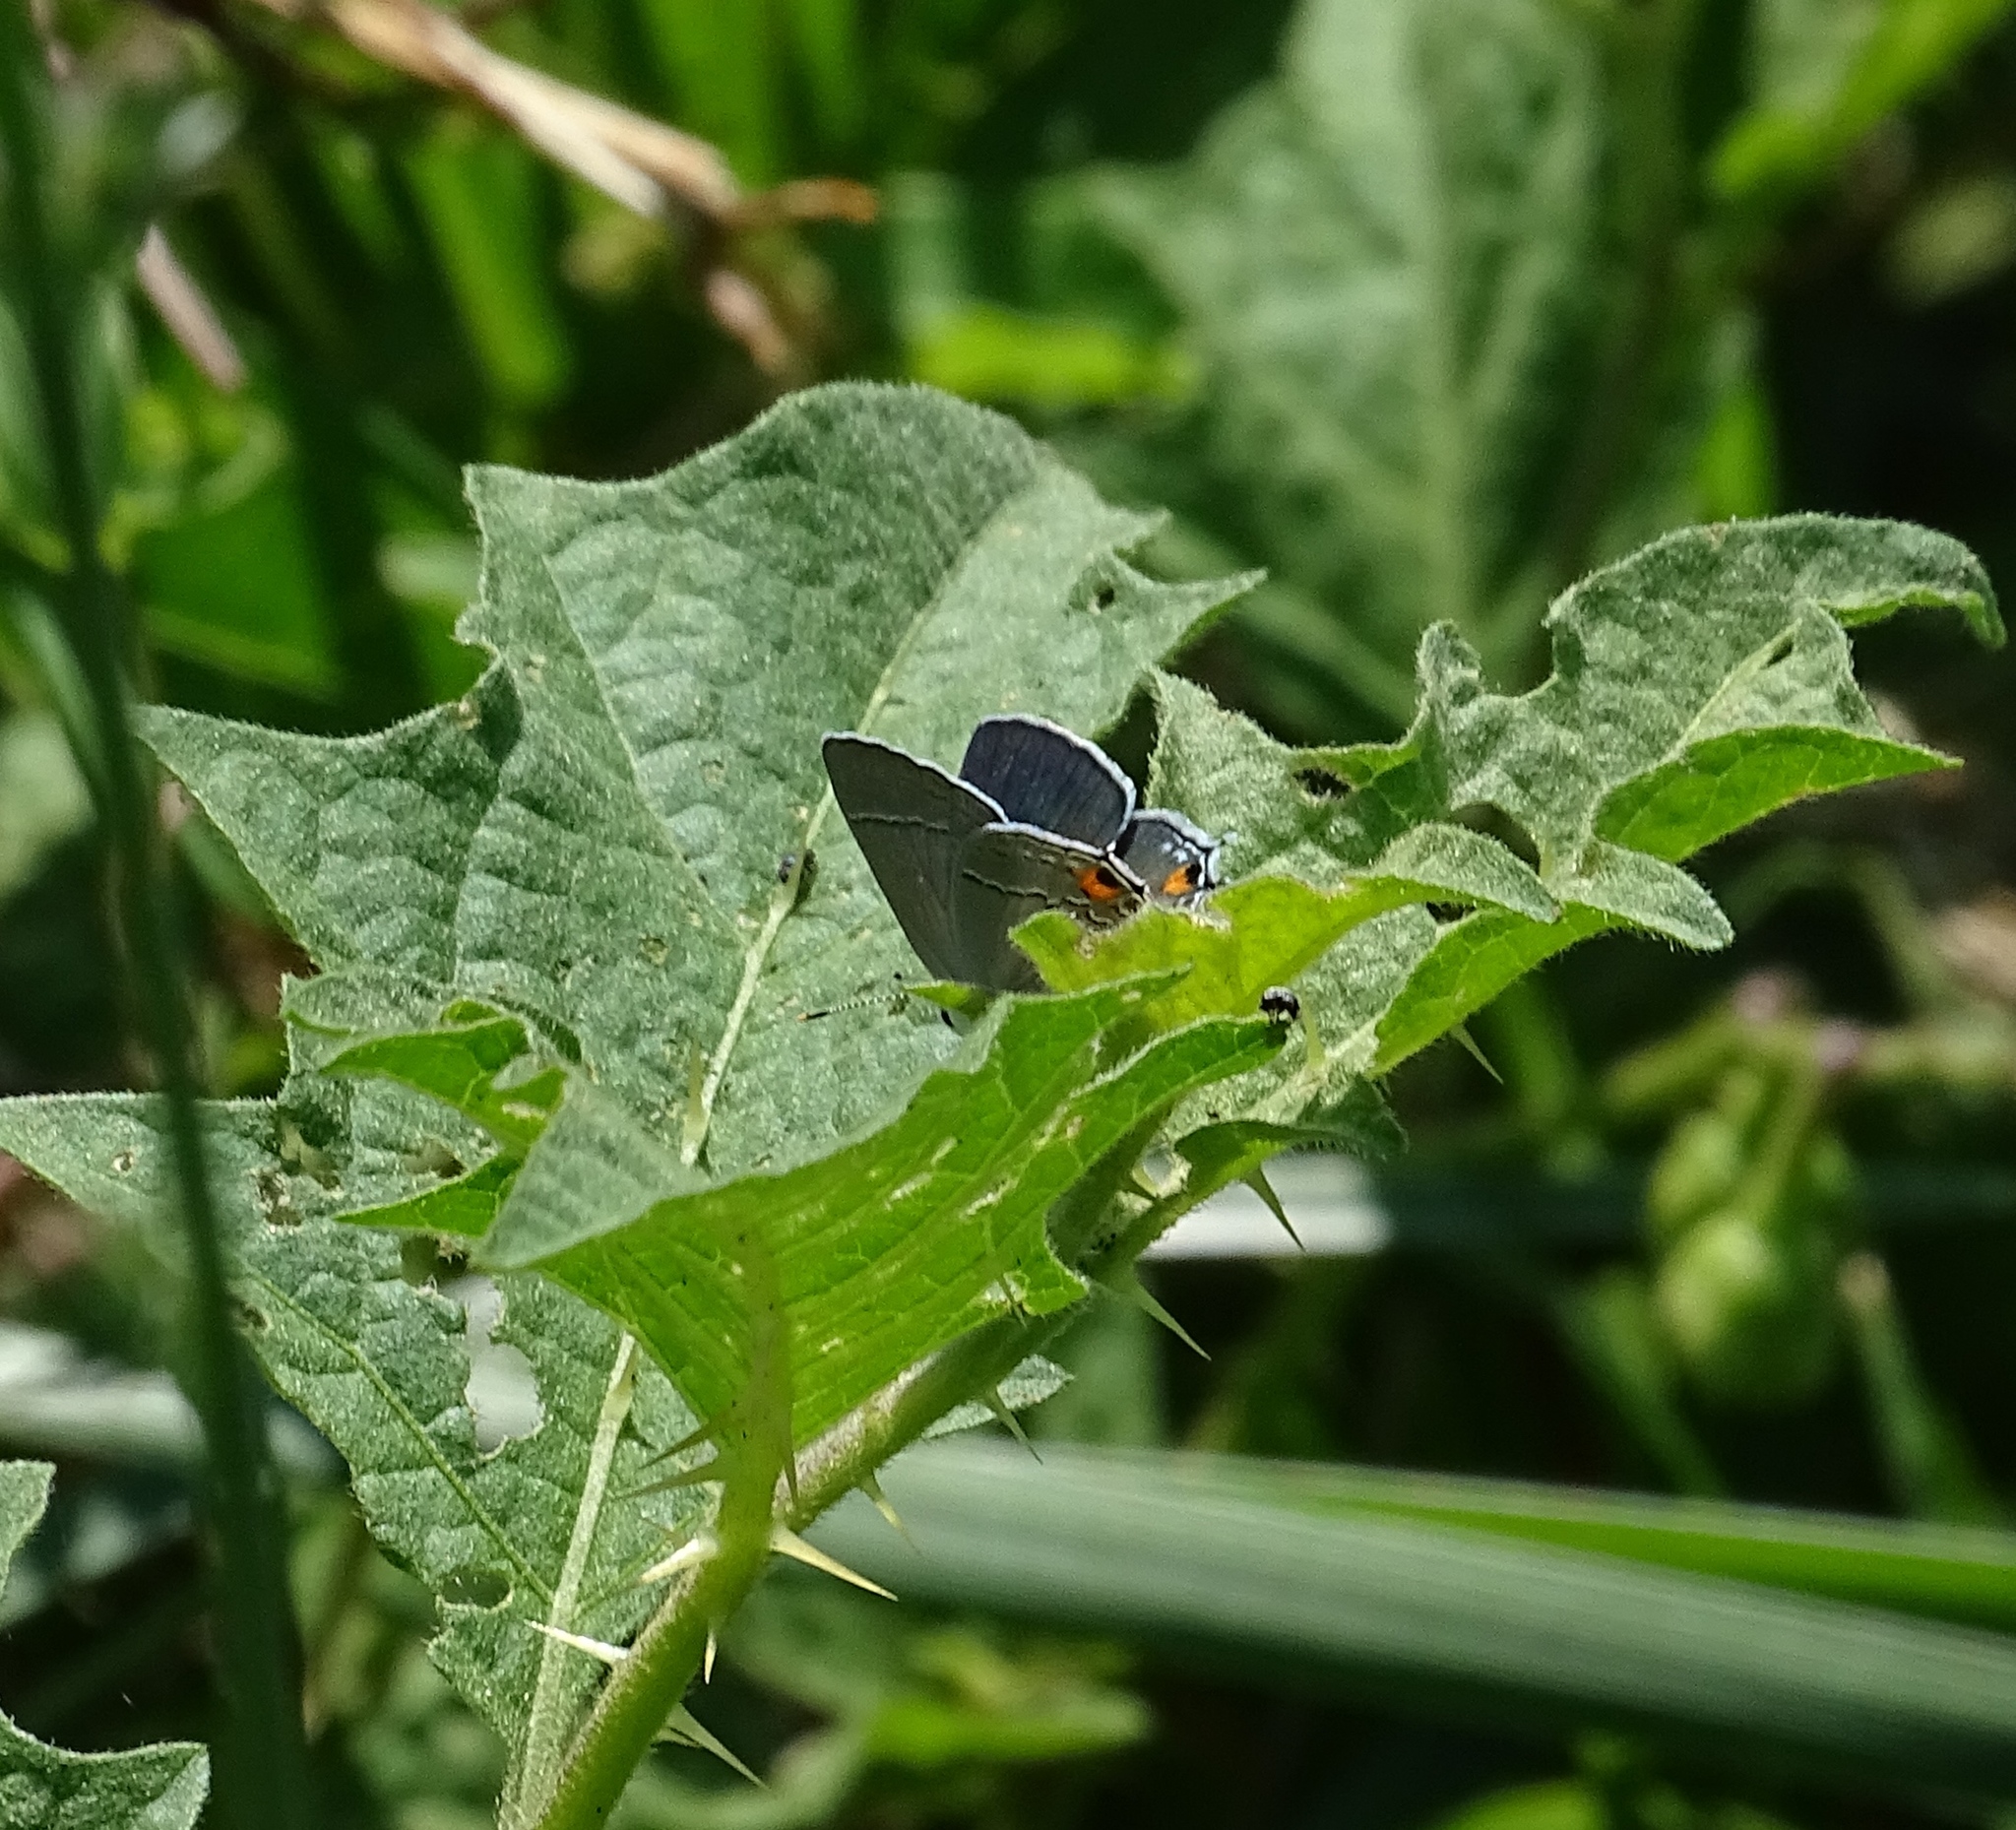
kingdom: Animalia
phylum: Arthropoda
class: Insecta
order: Lepidoptera
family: Lycaenidae
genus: Strymon
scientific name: Strymon melinus
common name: Gray hairstreak
